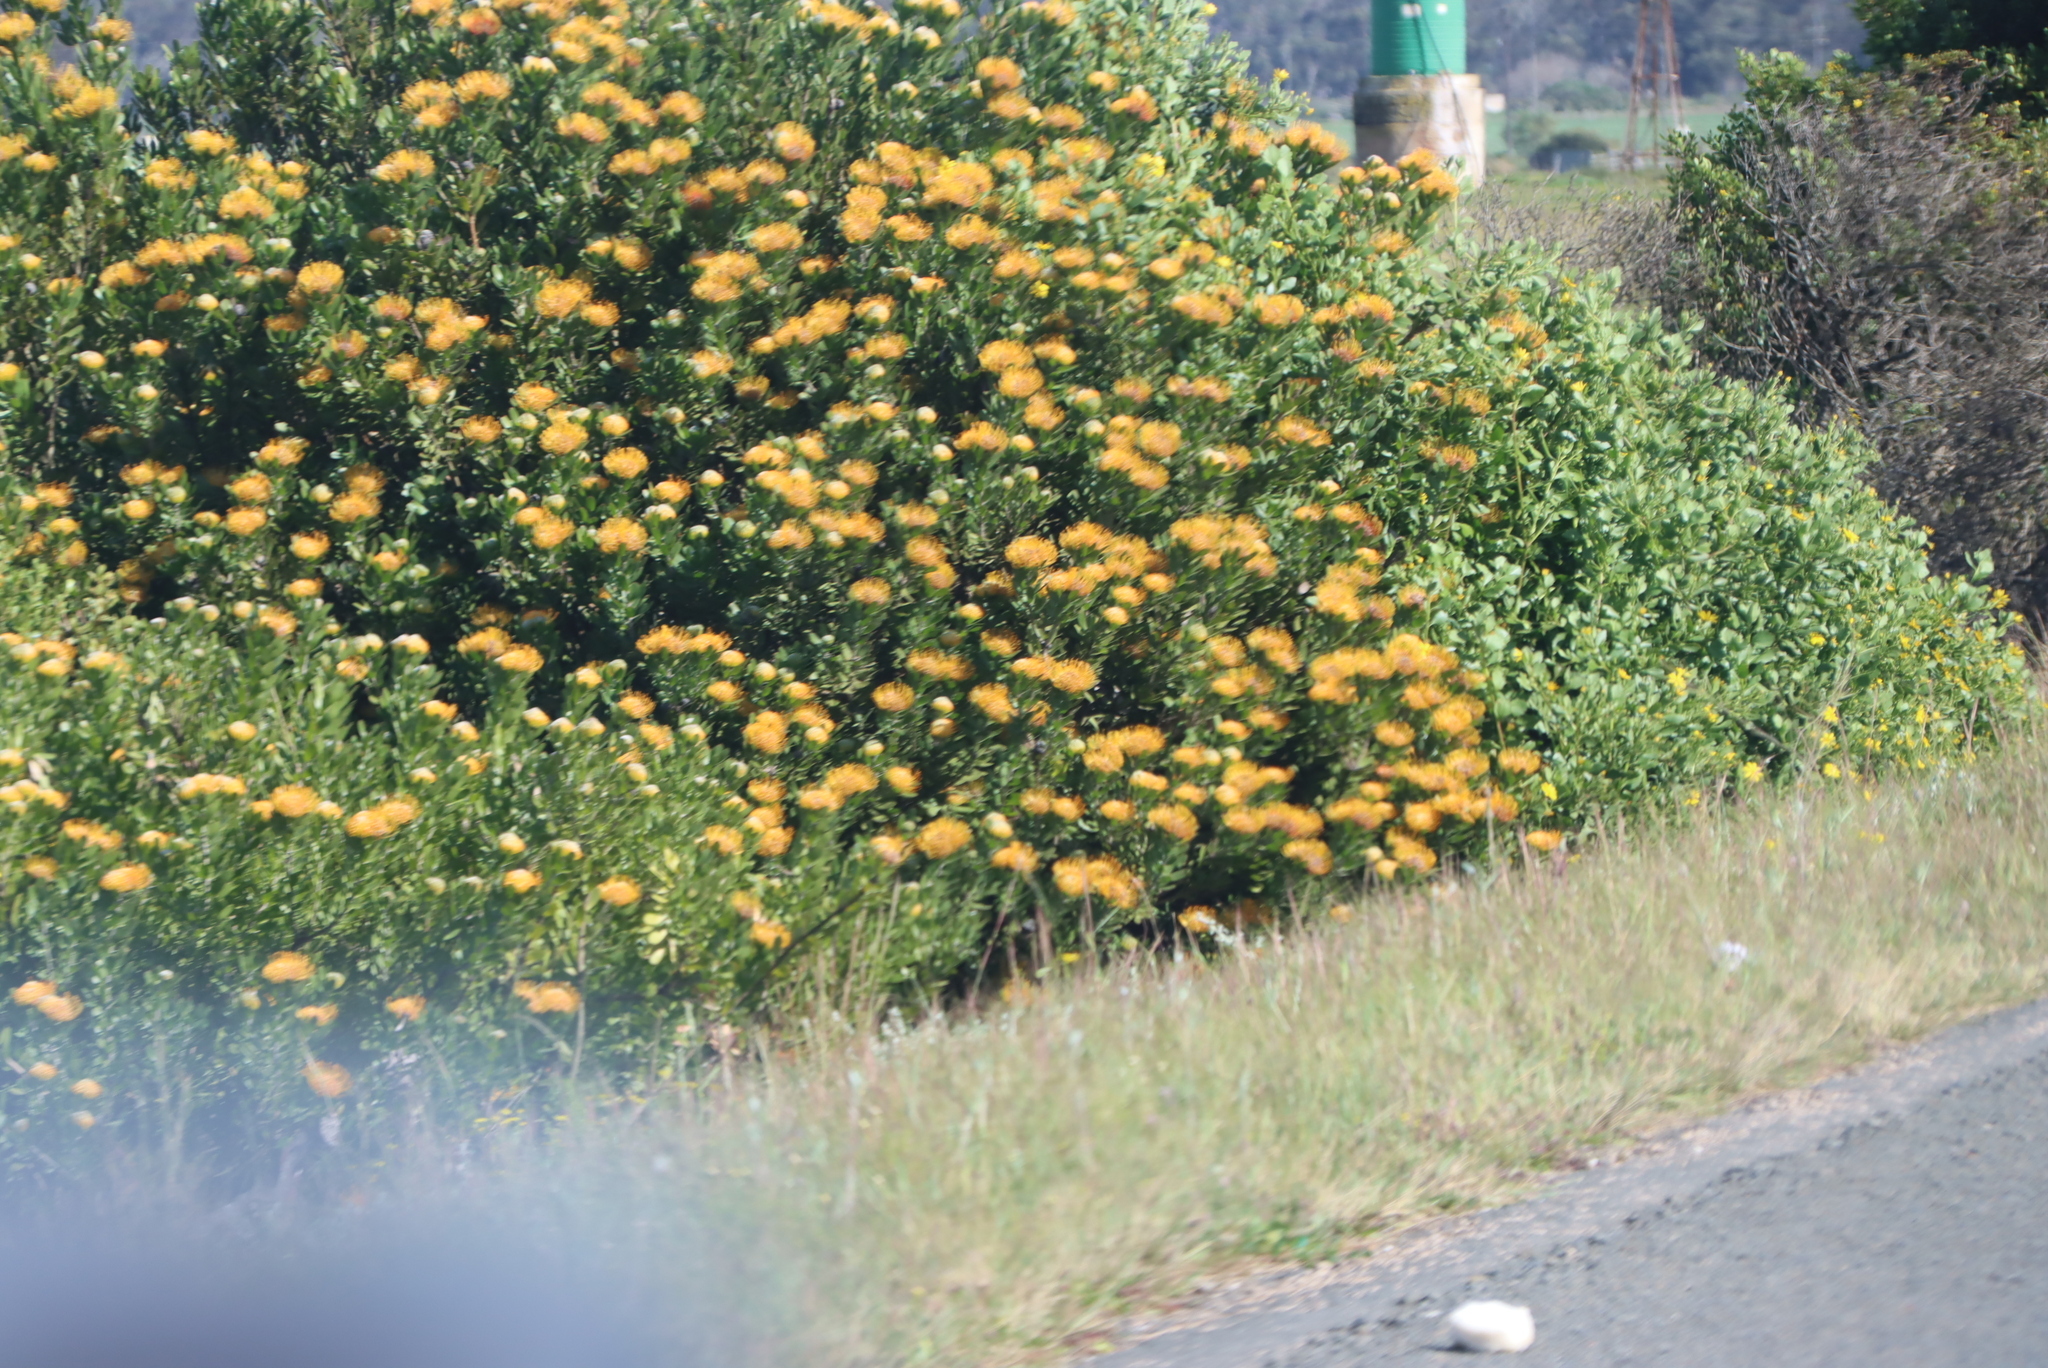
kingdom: Plantae
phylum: Tracheophyta
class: Magnoliopsida
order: Proteales
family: Proteaceae
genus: Leucospermum
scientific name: Leucospermum praecox
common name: Mossel bay pincushion
